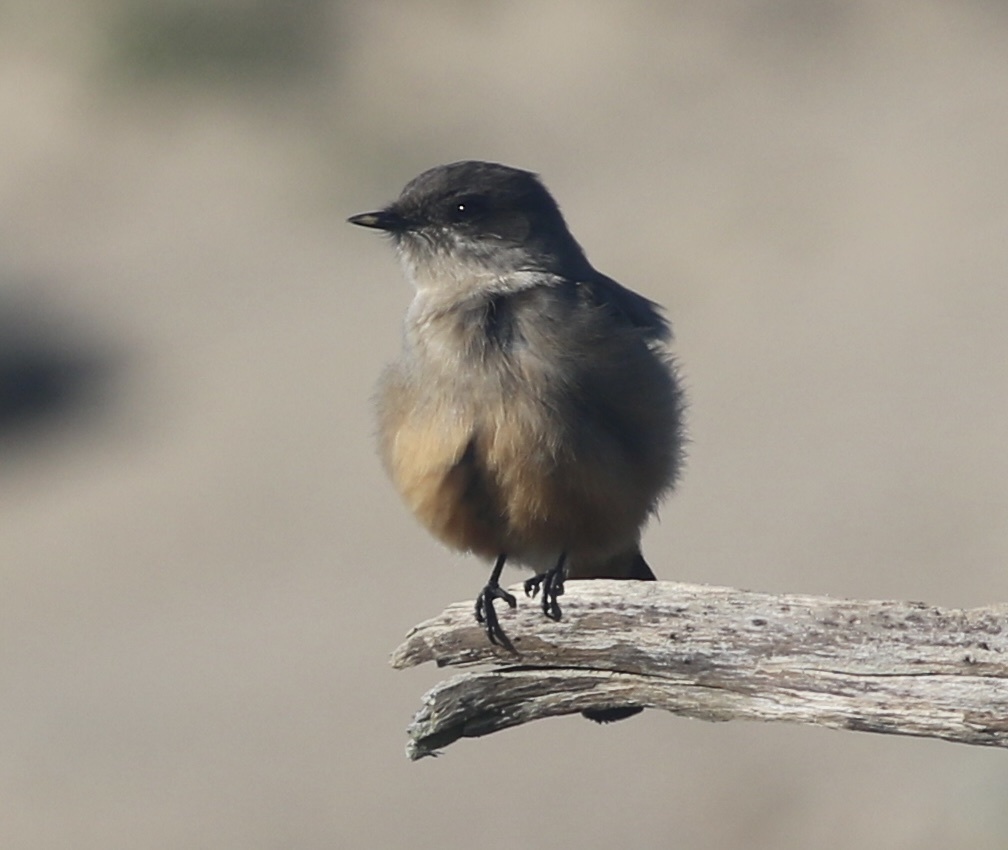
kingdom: Animalia
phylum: Chordata
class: Aves
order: Passeriformes
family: Tyrannidae
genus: Sayornis
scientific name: Sayornis saya
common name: Say's phoebe
